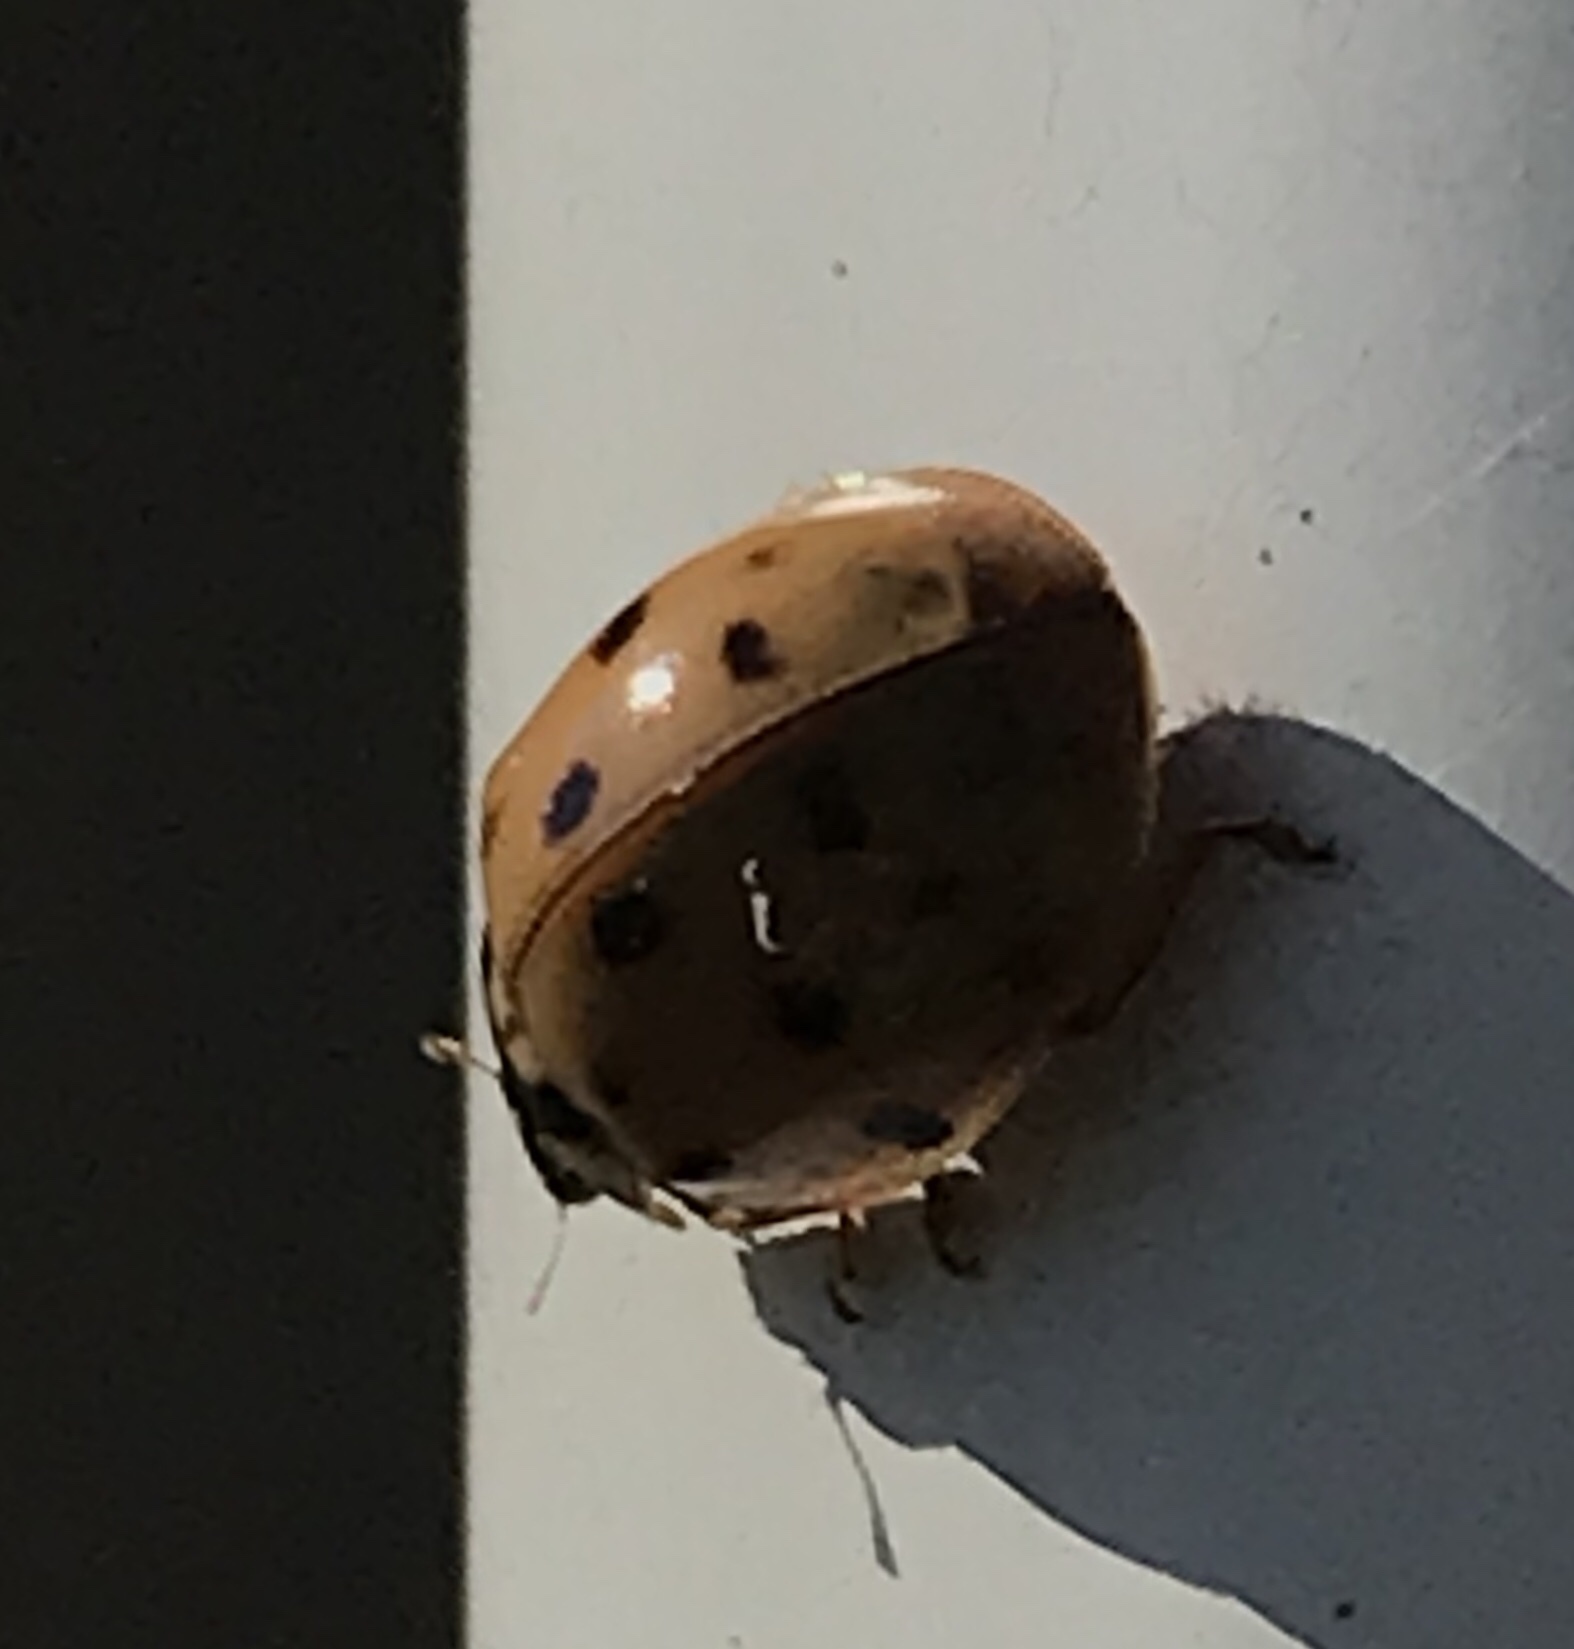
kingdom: Animalia
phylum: Arthropoda
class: Insecta
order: Coleoptera
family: Coccinellidae
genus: Harmonia
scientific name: Harmonia axyridis
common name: Harlequin ladybird
